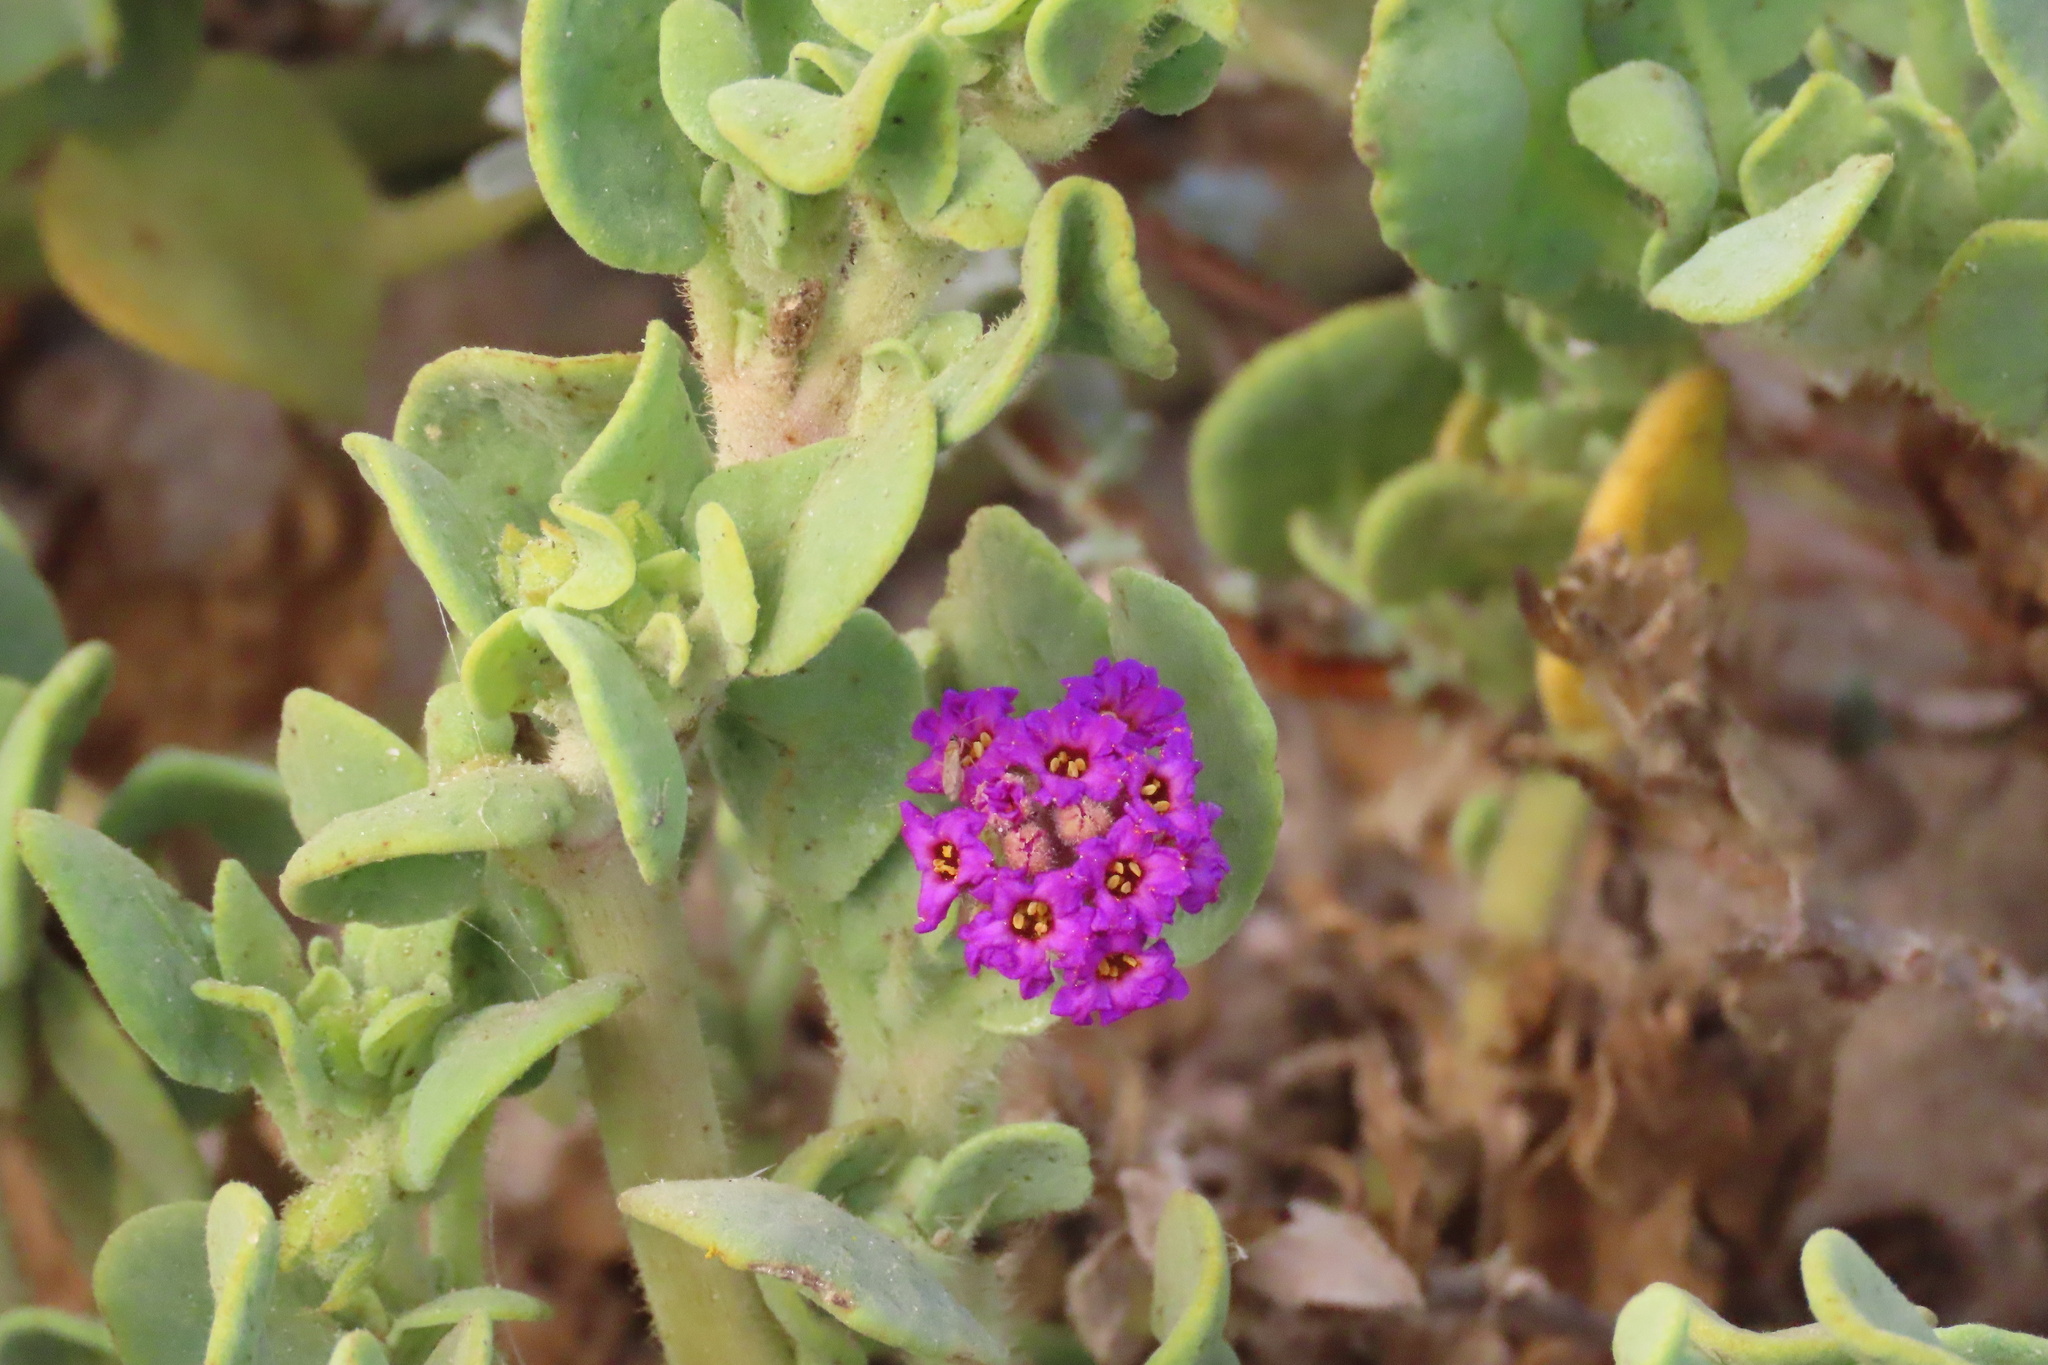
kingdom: Plantae
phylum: Tracheophyta
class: Magnoliopsida
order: Caryophyllales
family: Nyctaginaceae
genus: Abronia
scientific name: Abronia maritima
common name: Red sand-verbena
